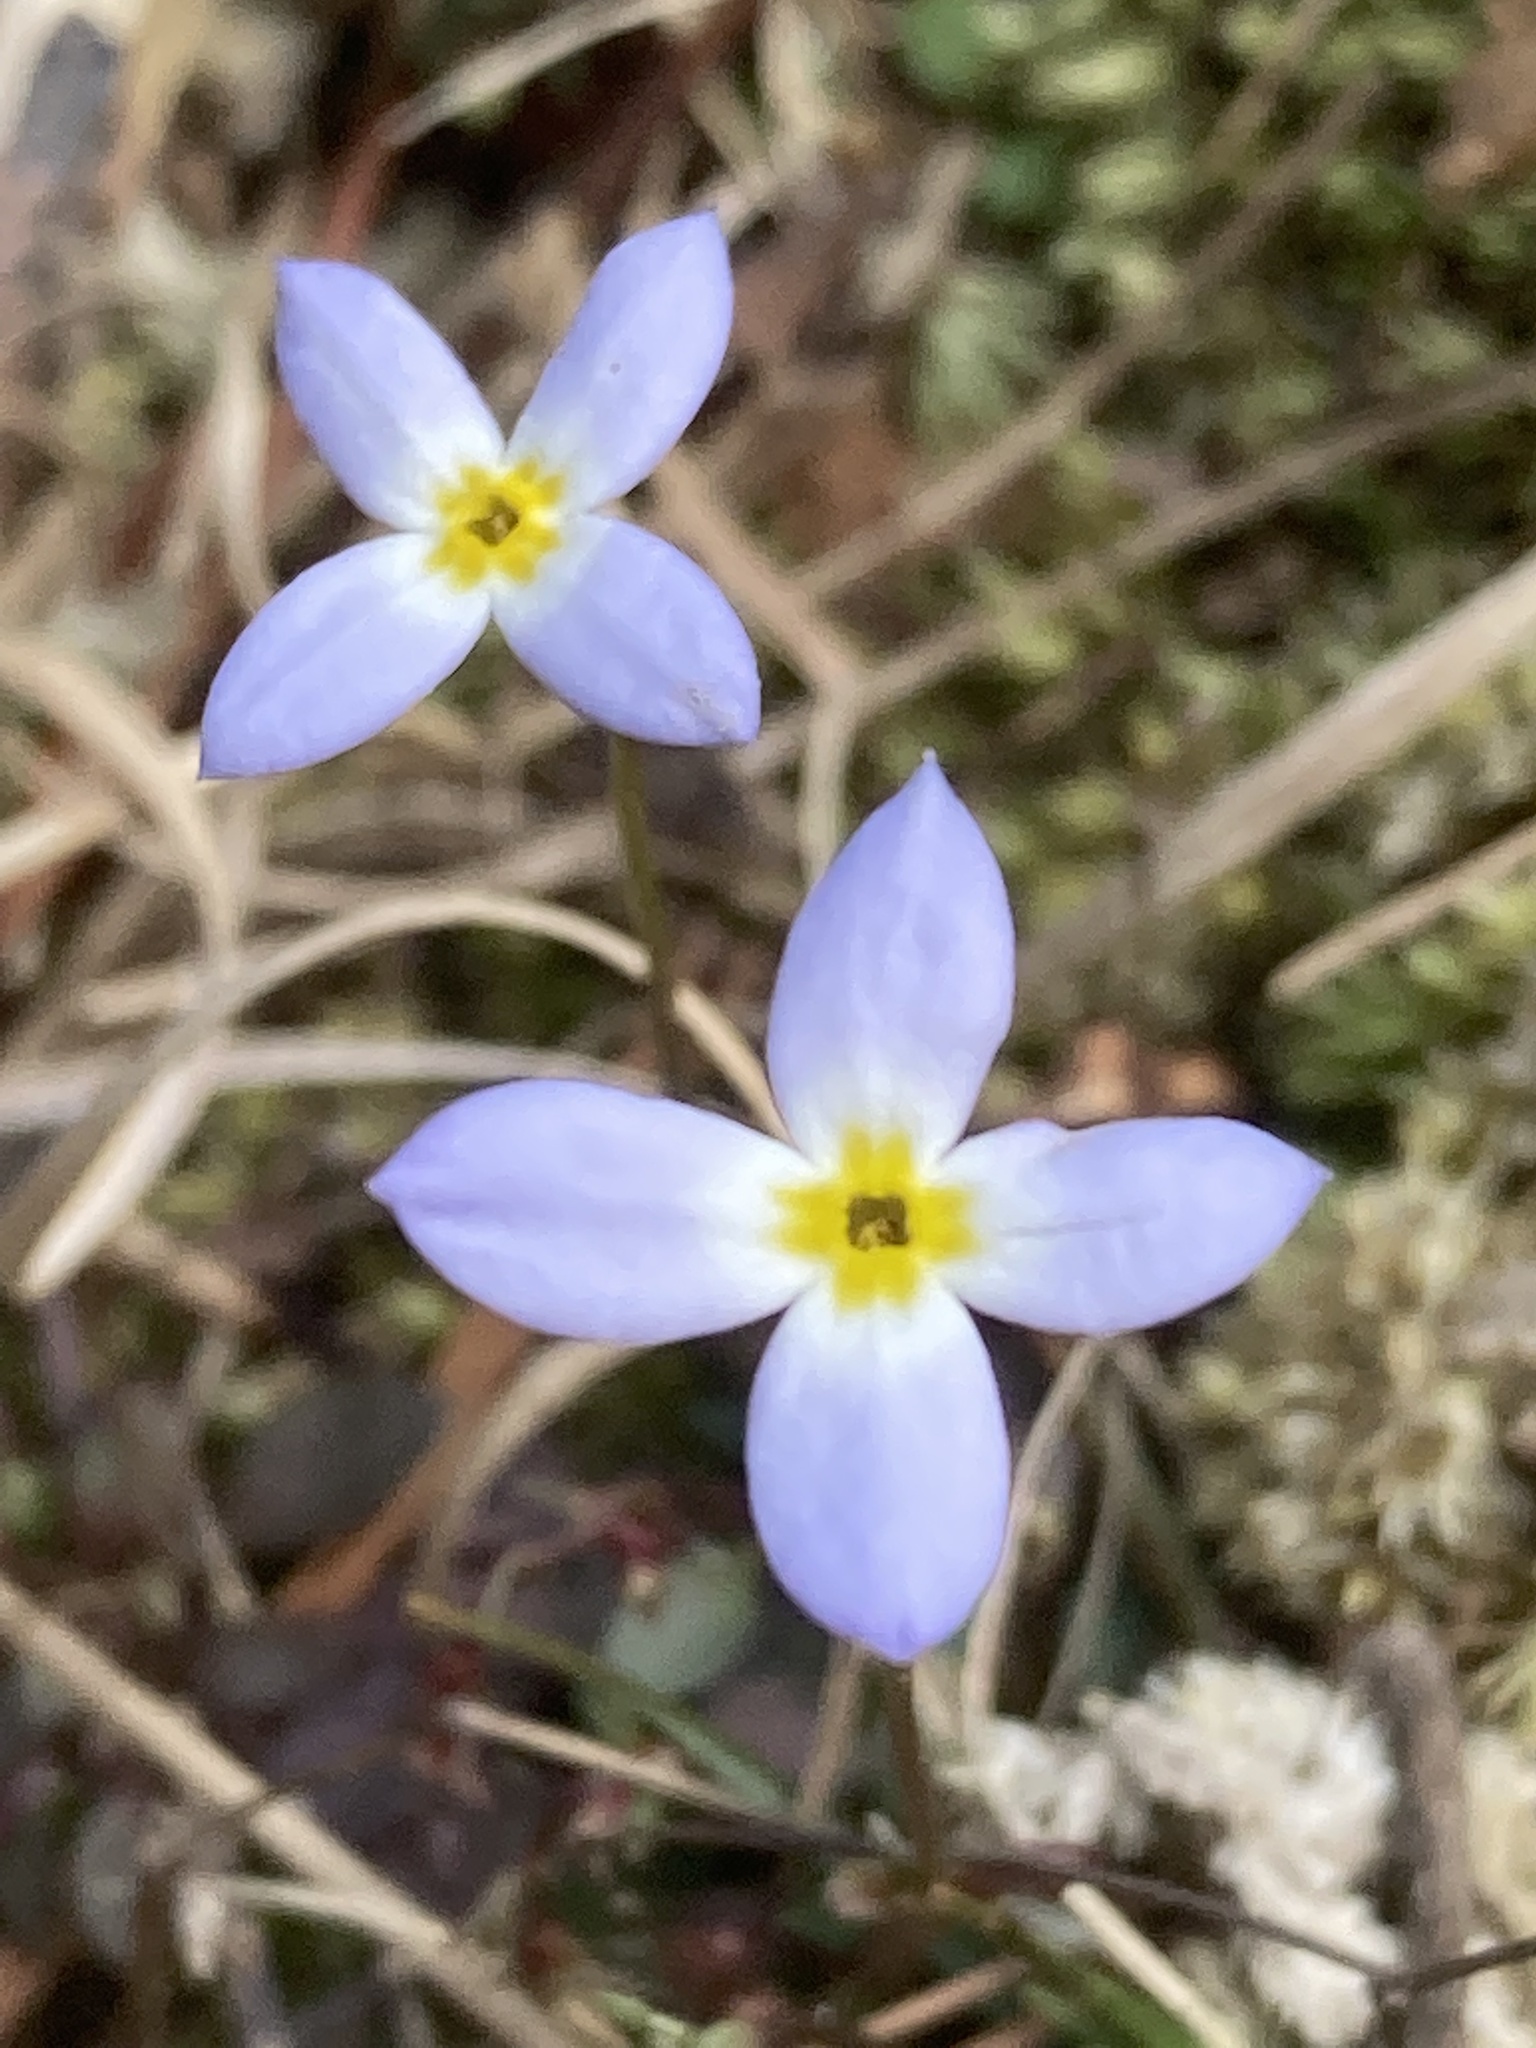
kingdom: Plantae
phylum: Tracheophyta
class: Magnoliopsida
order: Gentianales
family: Rubiaceae
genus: Houstonia
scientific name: Houstonia caerulea
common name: Bluets
